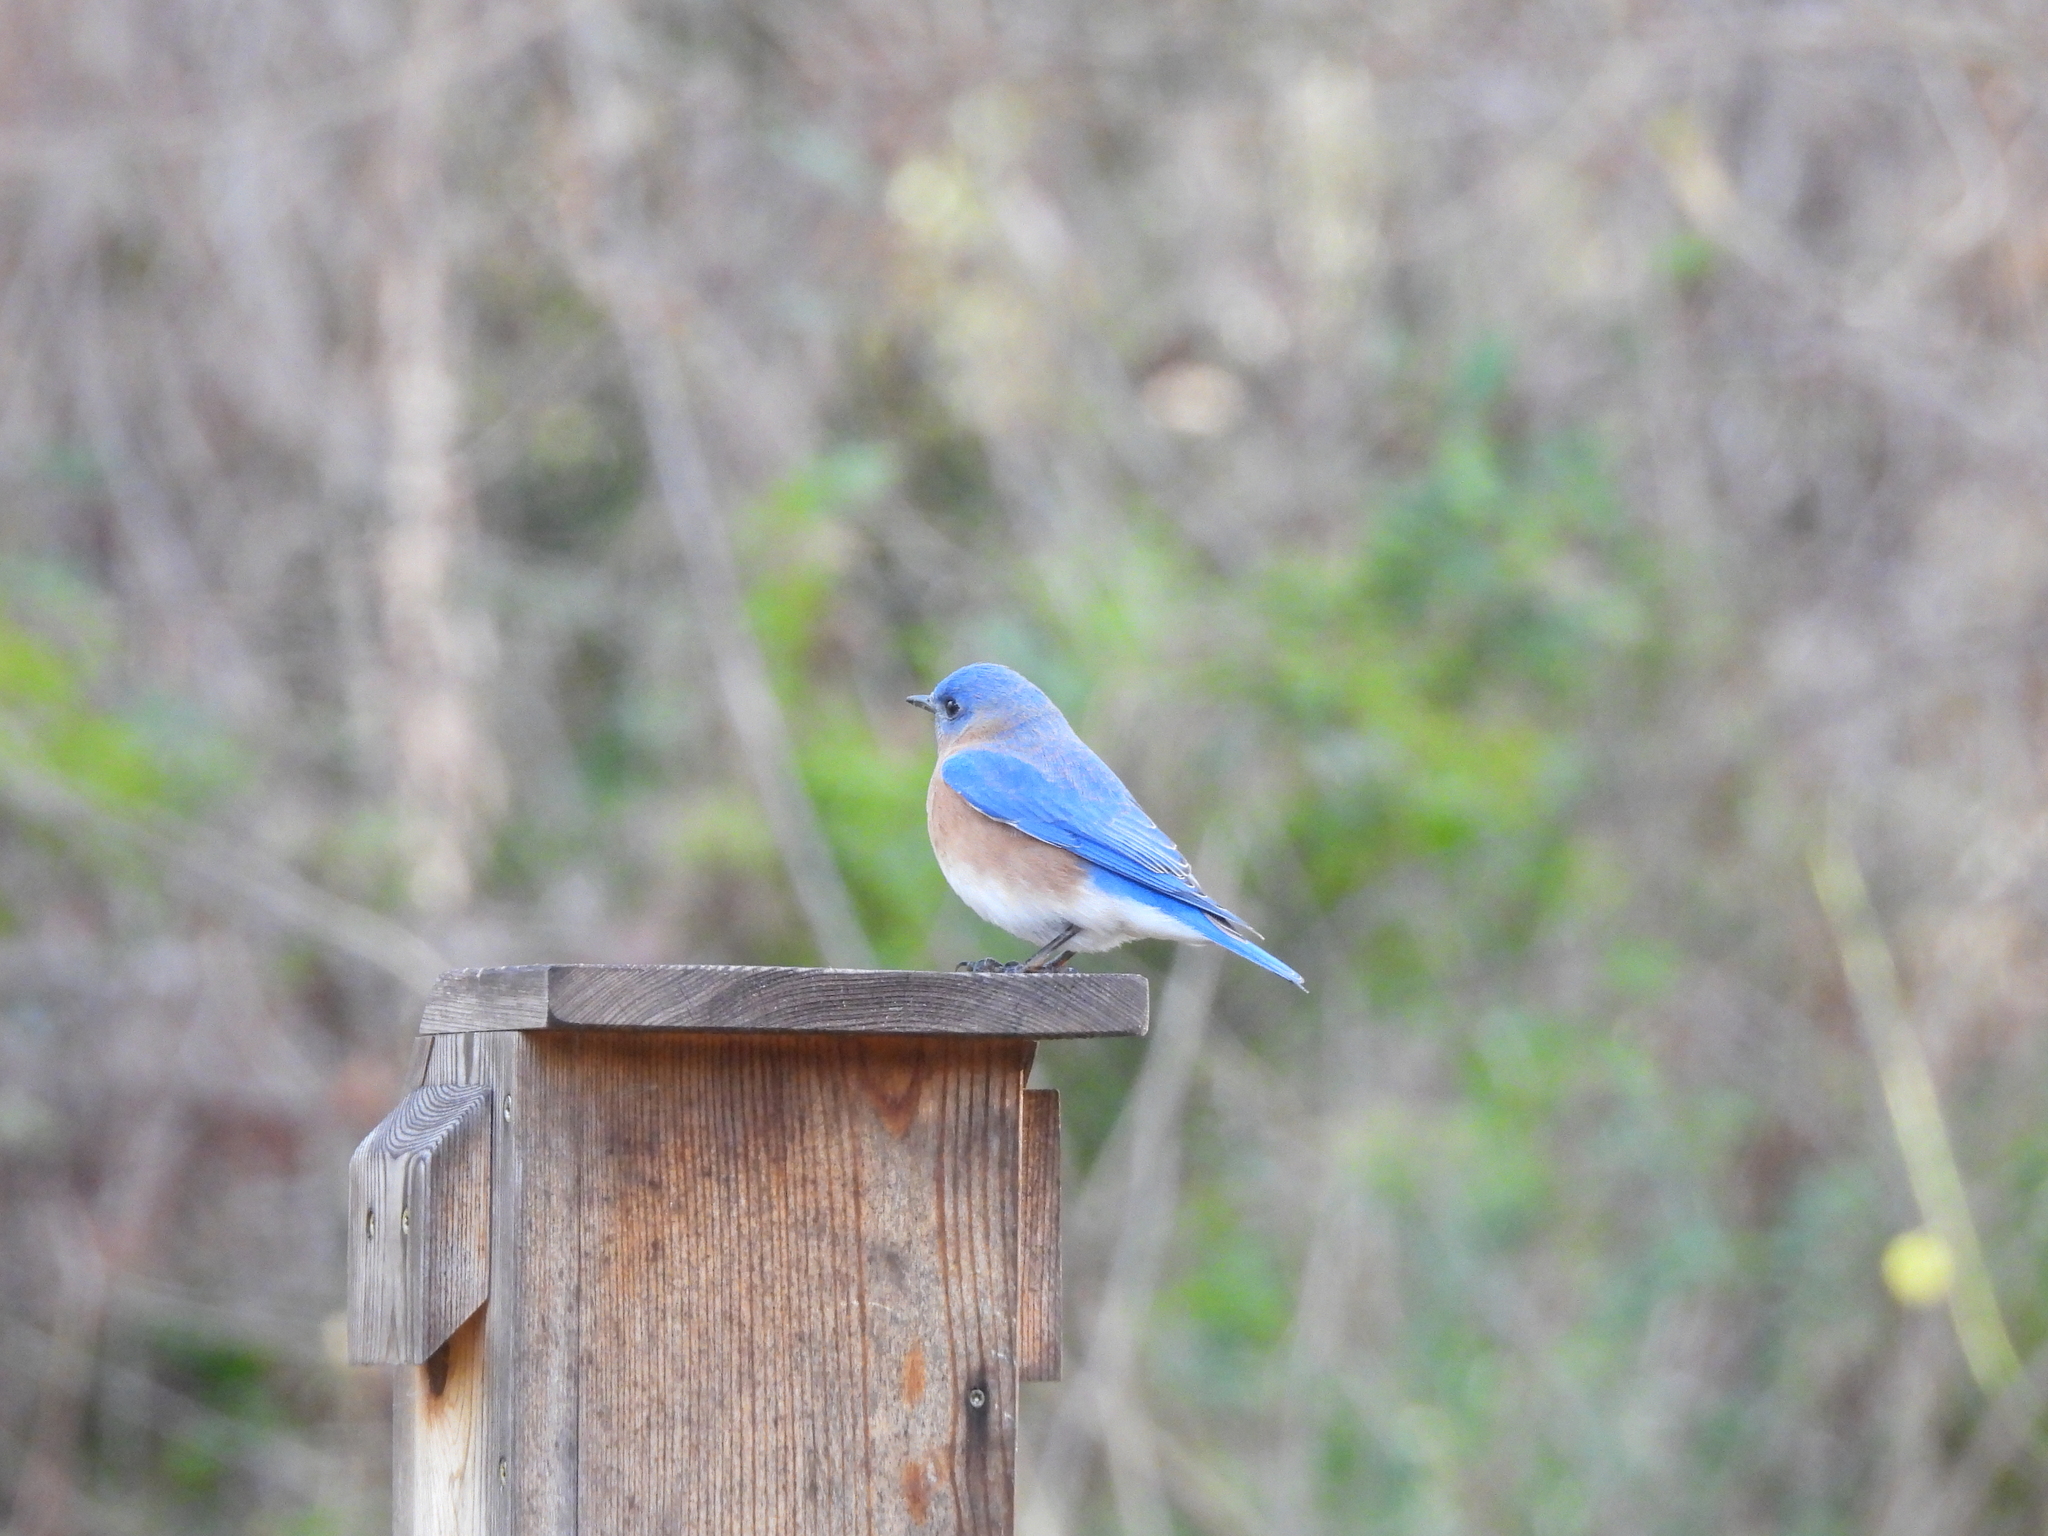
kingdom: Animalia
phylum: Chordata
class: Aves
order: Passeriformes
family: Turdidae
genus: Sialia
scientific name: Sialia sialis
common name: Eastern bluebird
